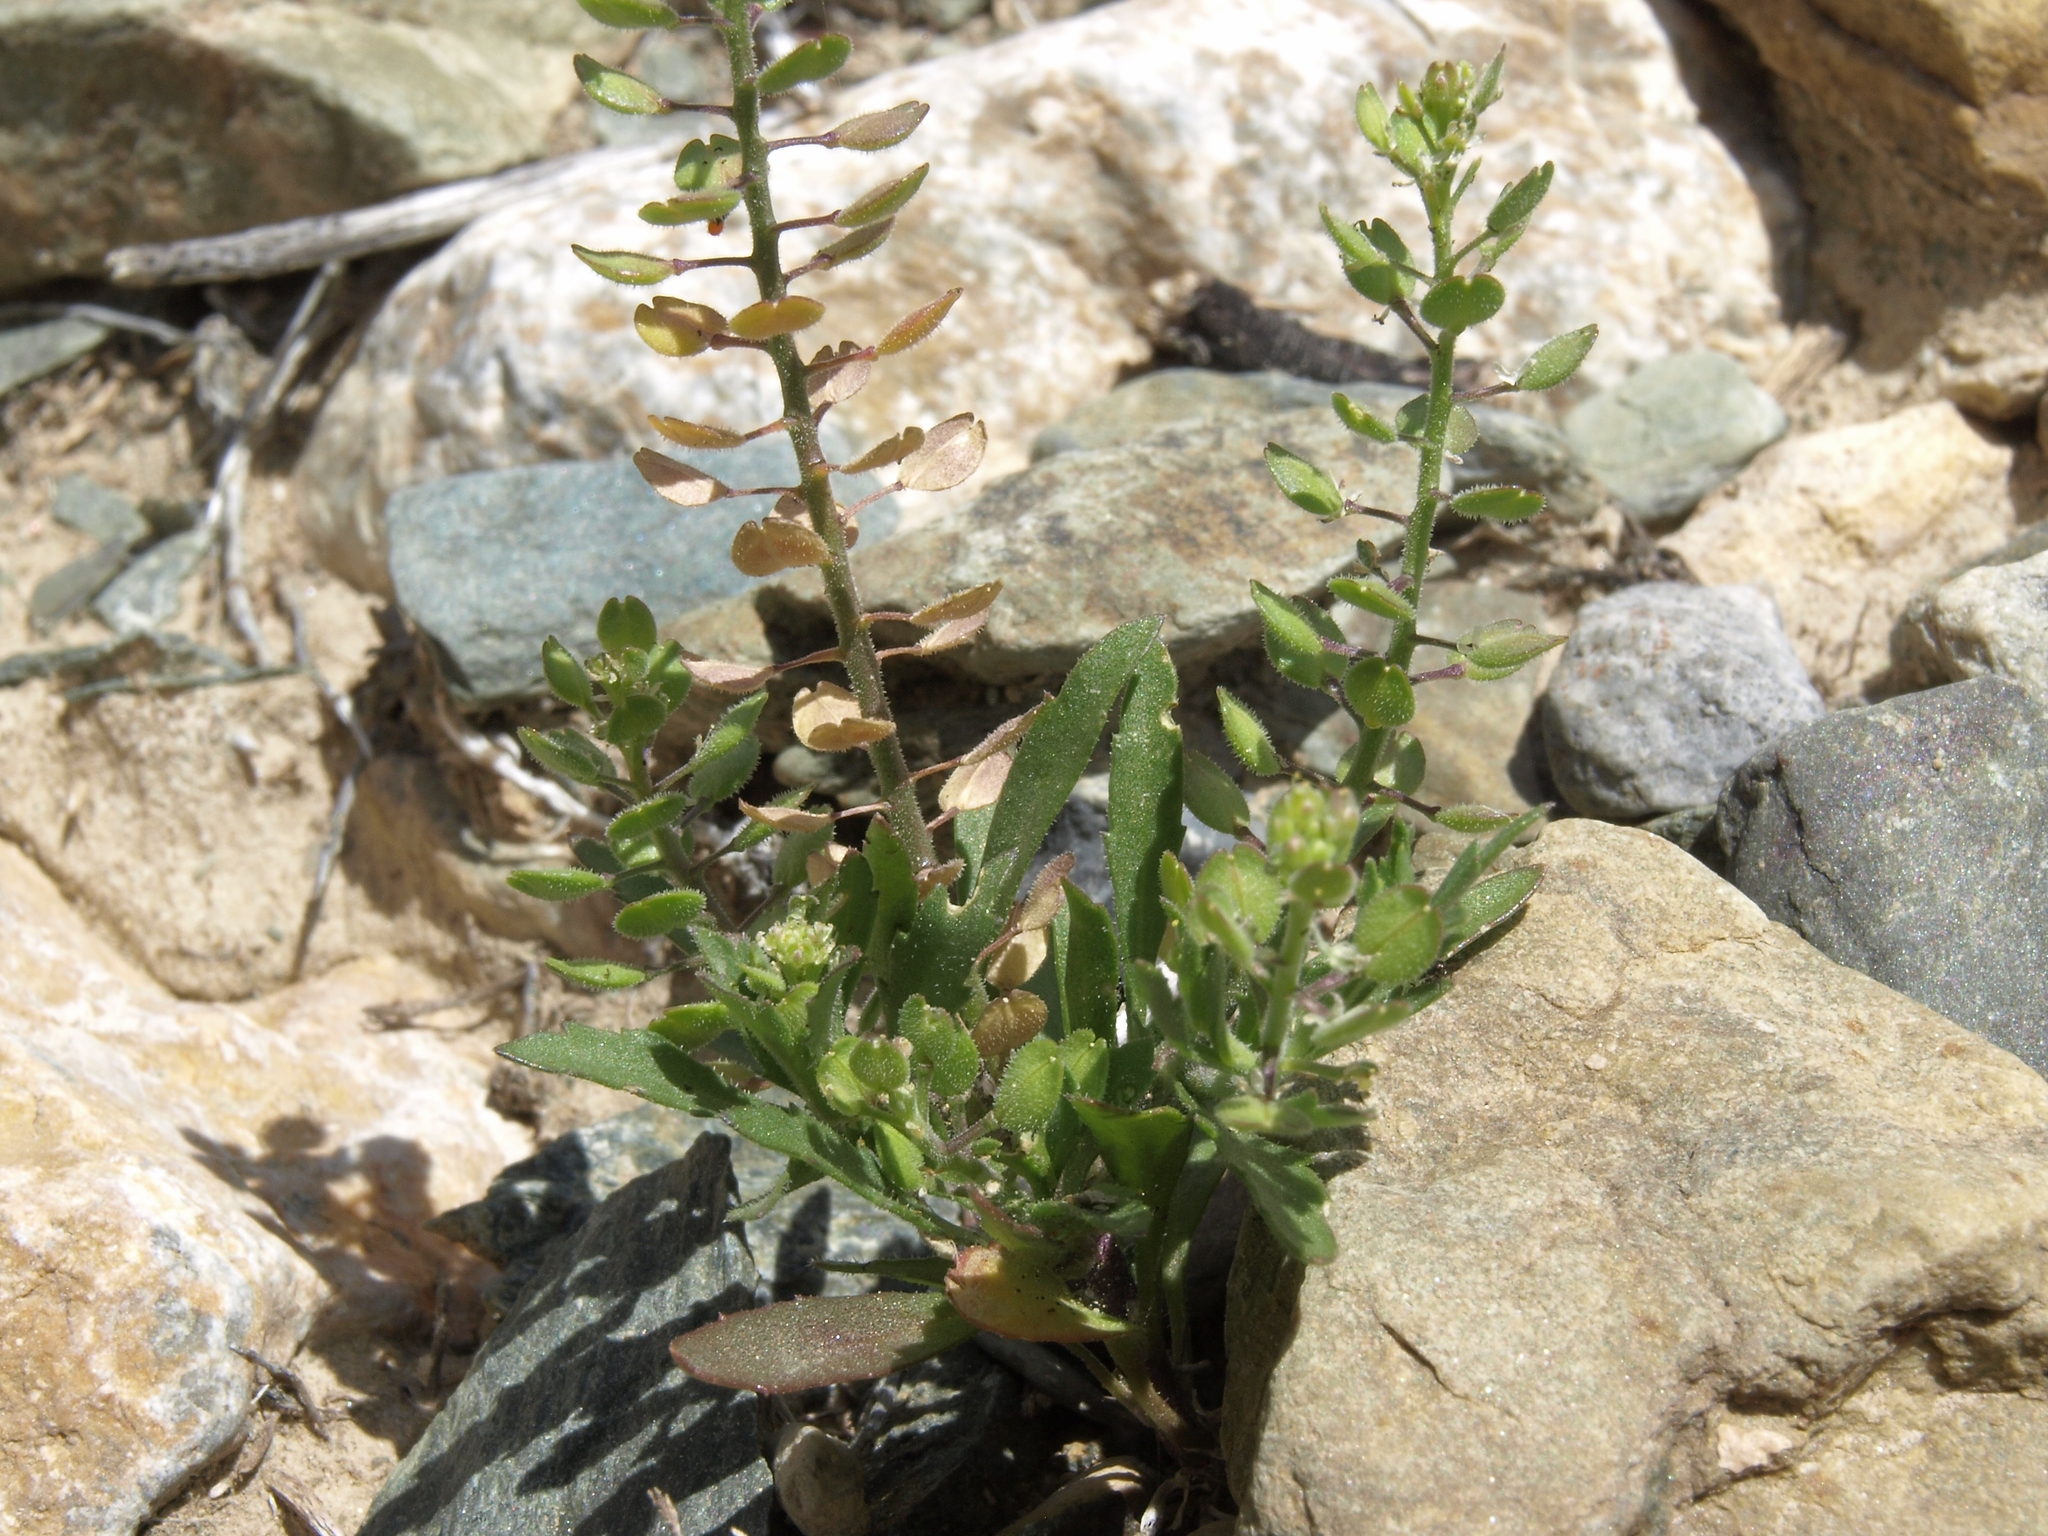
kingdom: Plantae
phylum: Tracheophyta
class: Magnoliopsida
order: Brassicales
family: Brassicaceae
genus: Lepidium
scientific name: Lepidium lasiocarpum
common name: Hairy-pod pepperwort
